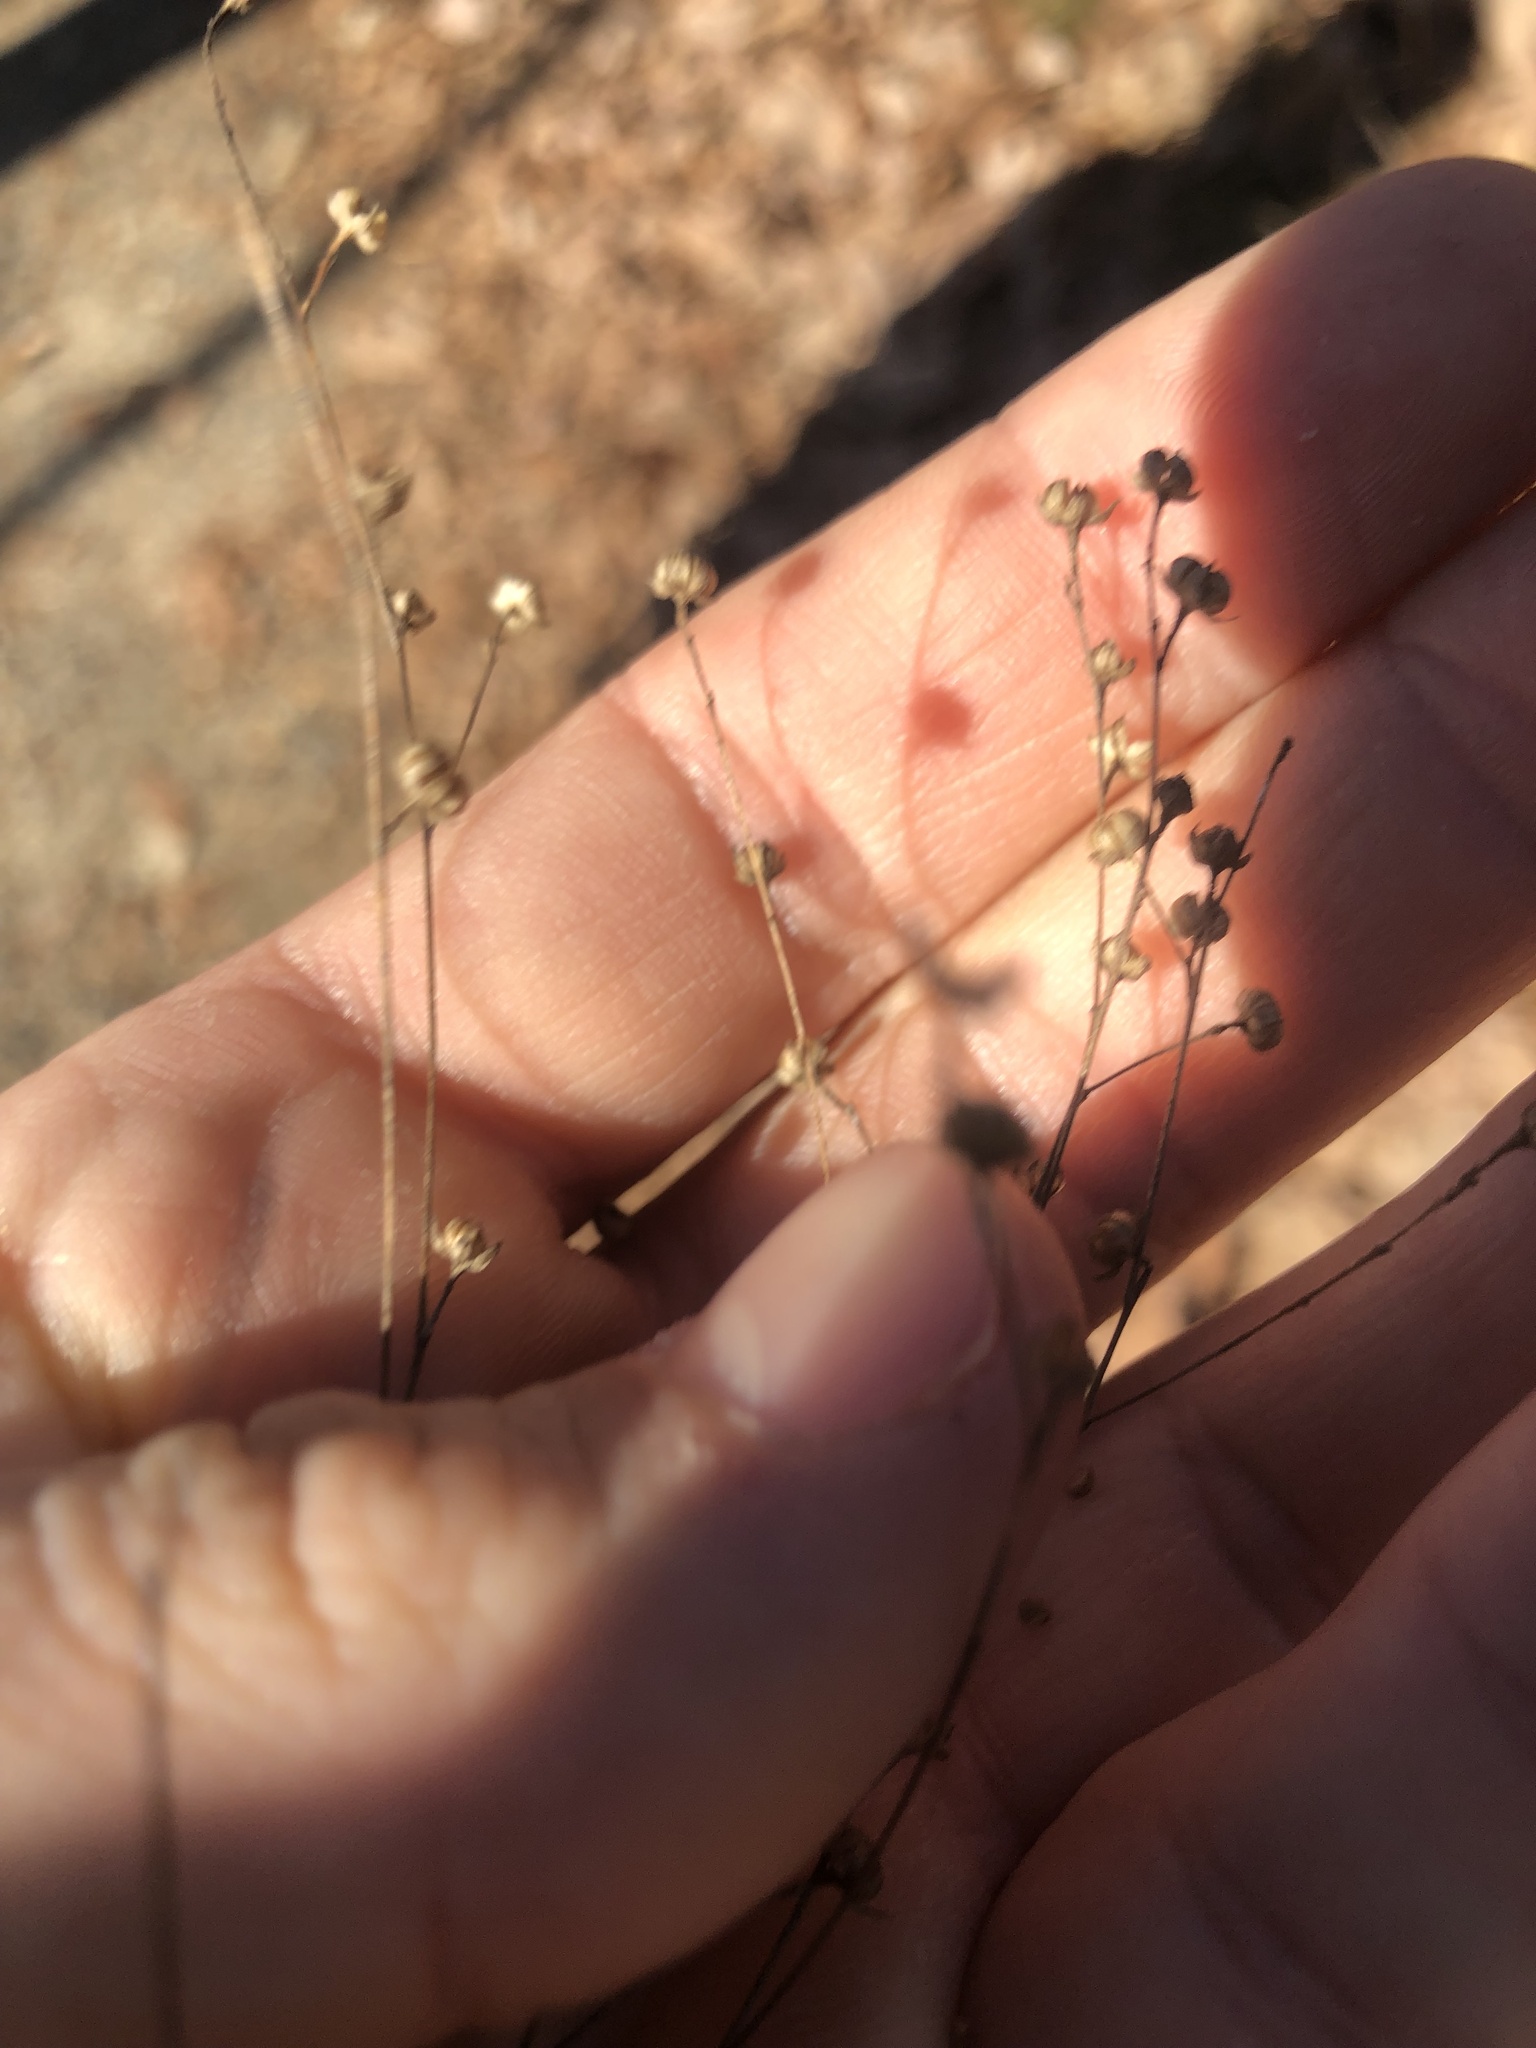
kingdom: Plantae
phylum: Tracheophyta
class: Magnoliopsida
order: Malpighiales
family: Linaceae
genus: Linum
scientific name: Linum virginianum
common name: Slender yellow flax
